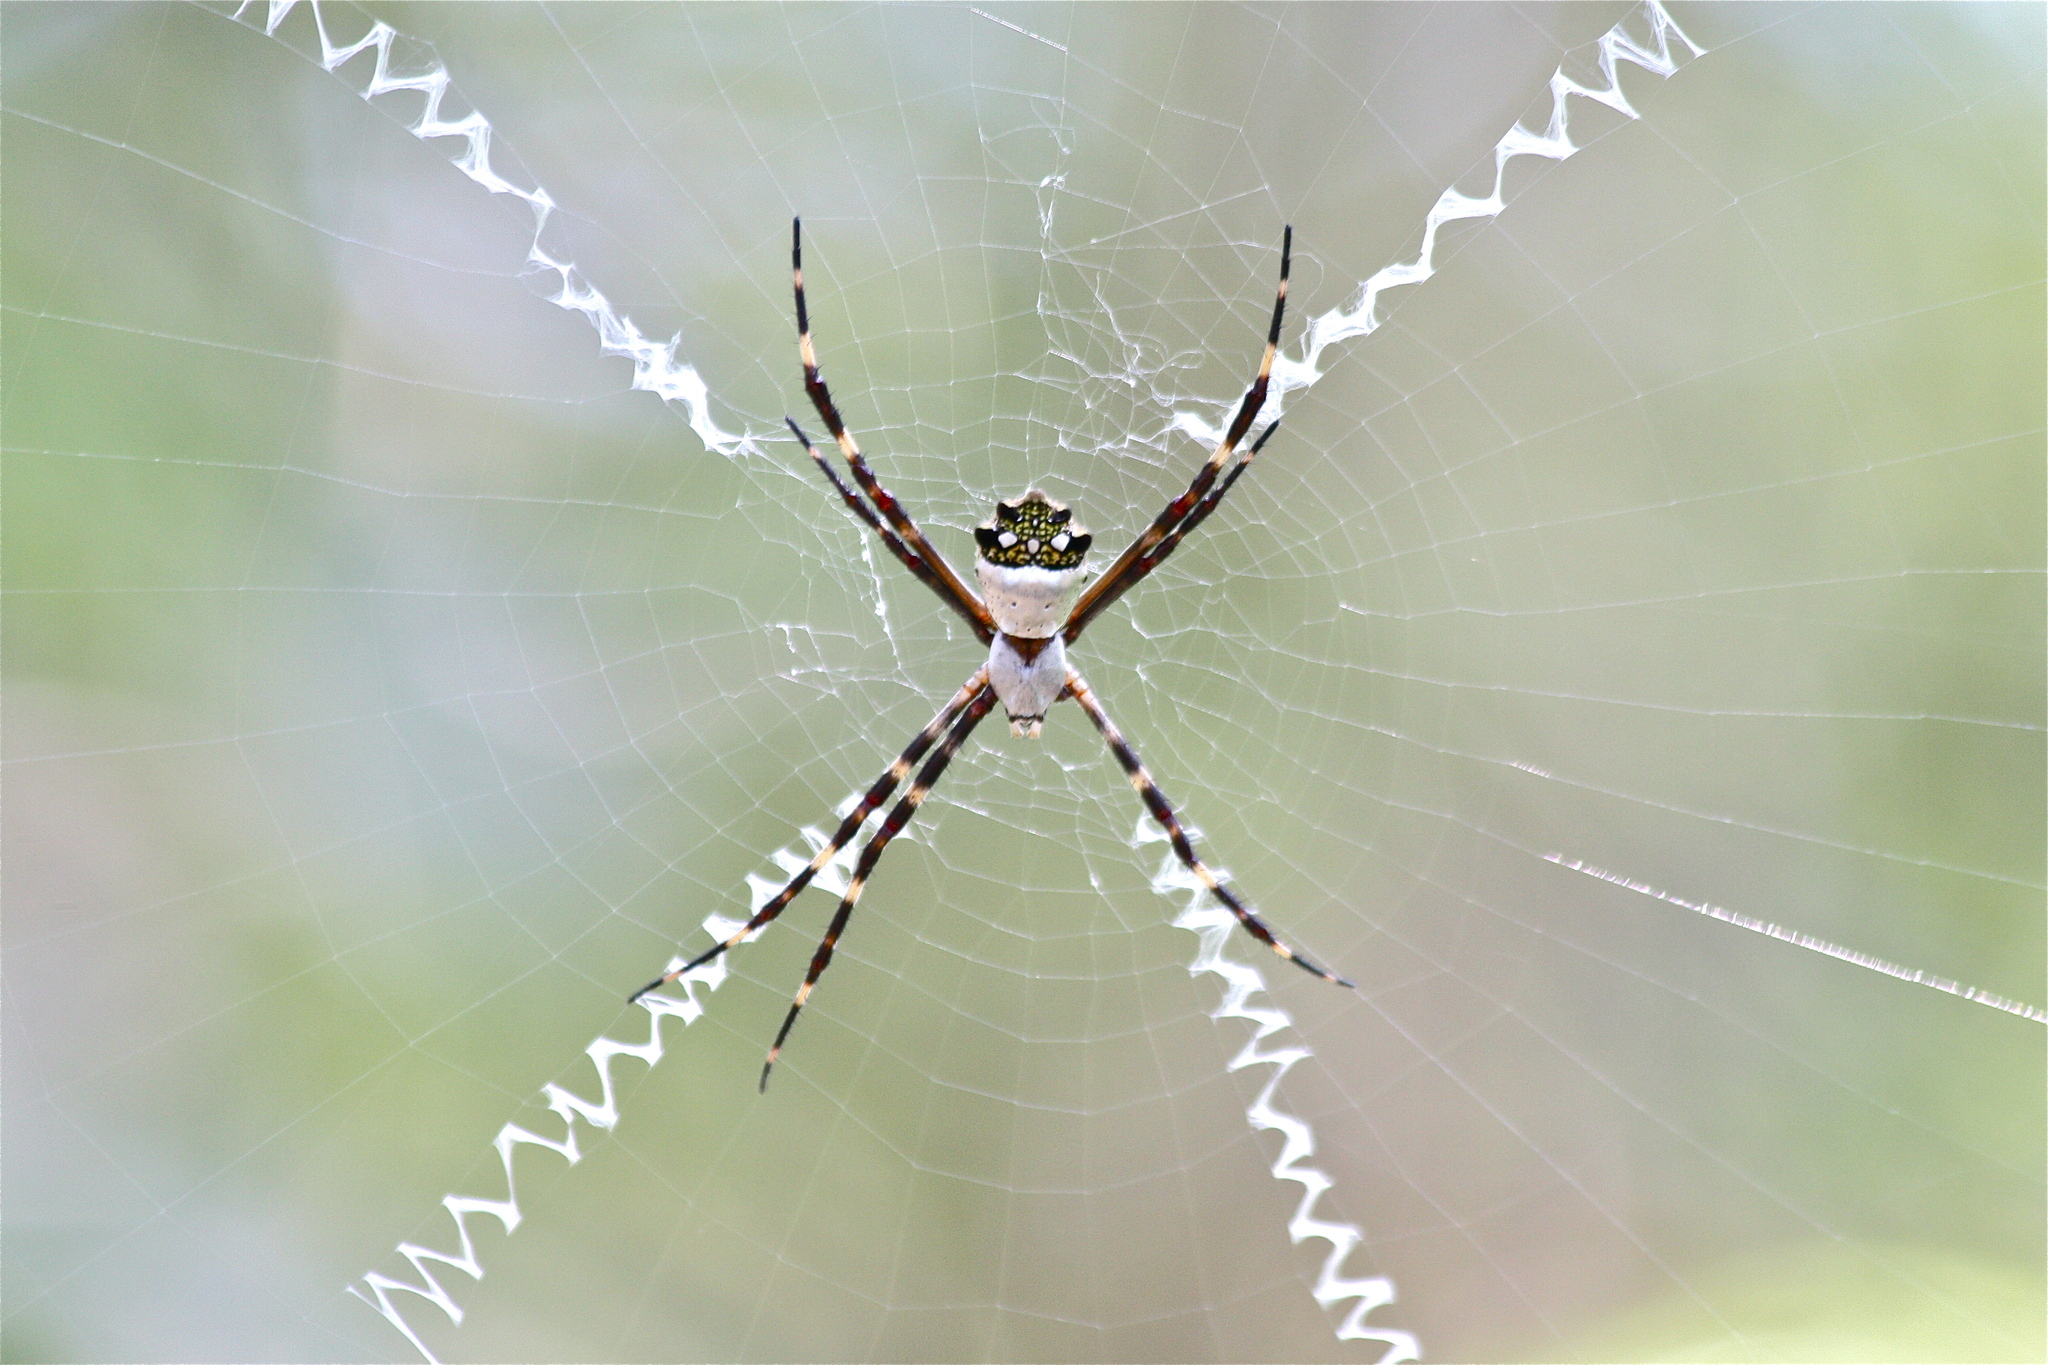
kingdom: Animalia
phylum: Arthropoda
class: Arachnida
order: Araneae
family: Araneidae
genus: Argiope
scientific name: Argiope argentata
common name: Orb weavers
